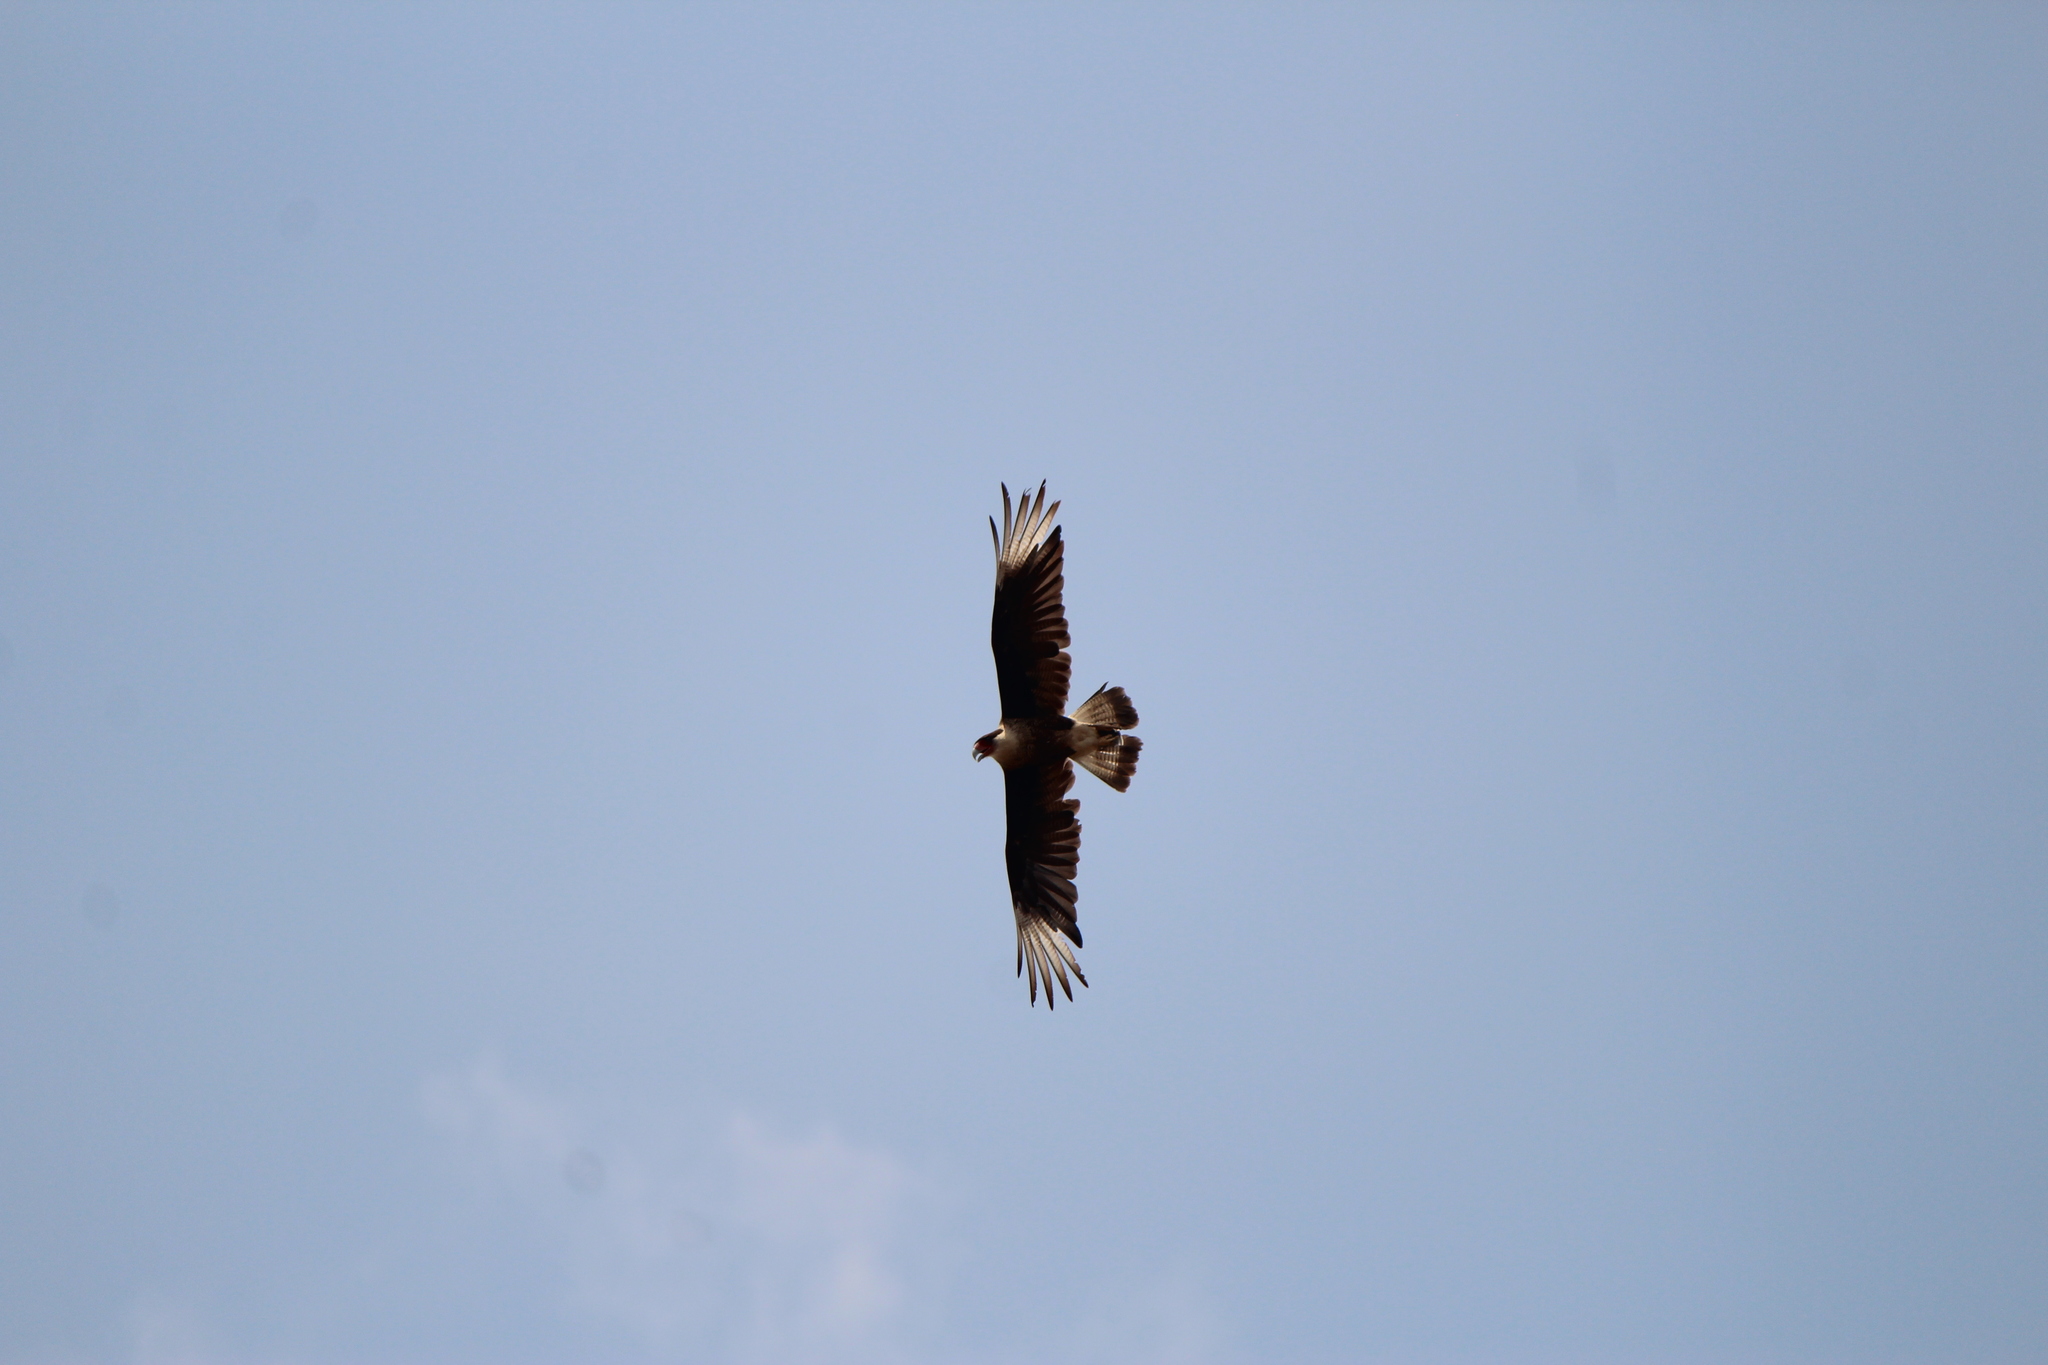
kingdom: Animalia
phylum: Chordata
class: Aves
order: Falconiformes
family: Falconidae
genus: Caracara
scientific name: Caracara plancus
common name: Southern caracara
